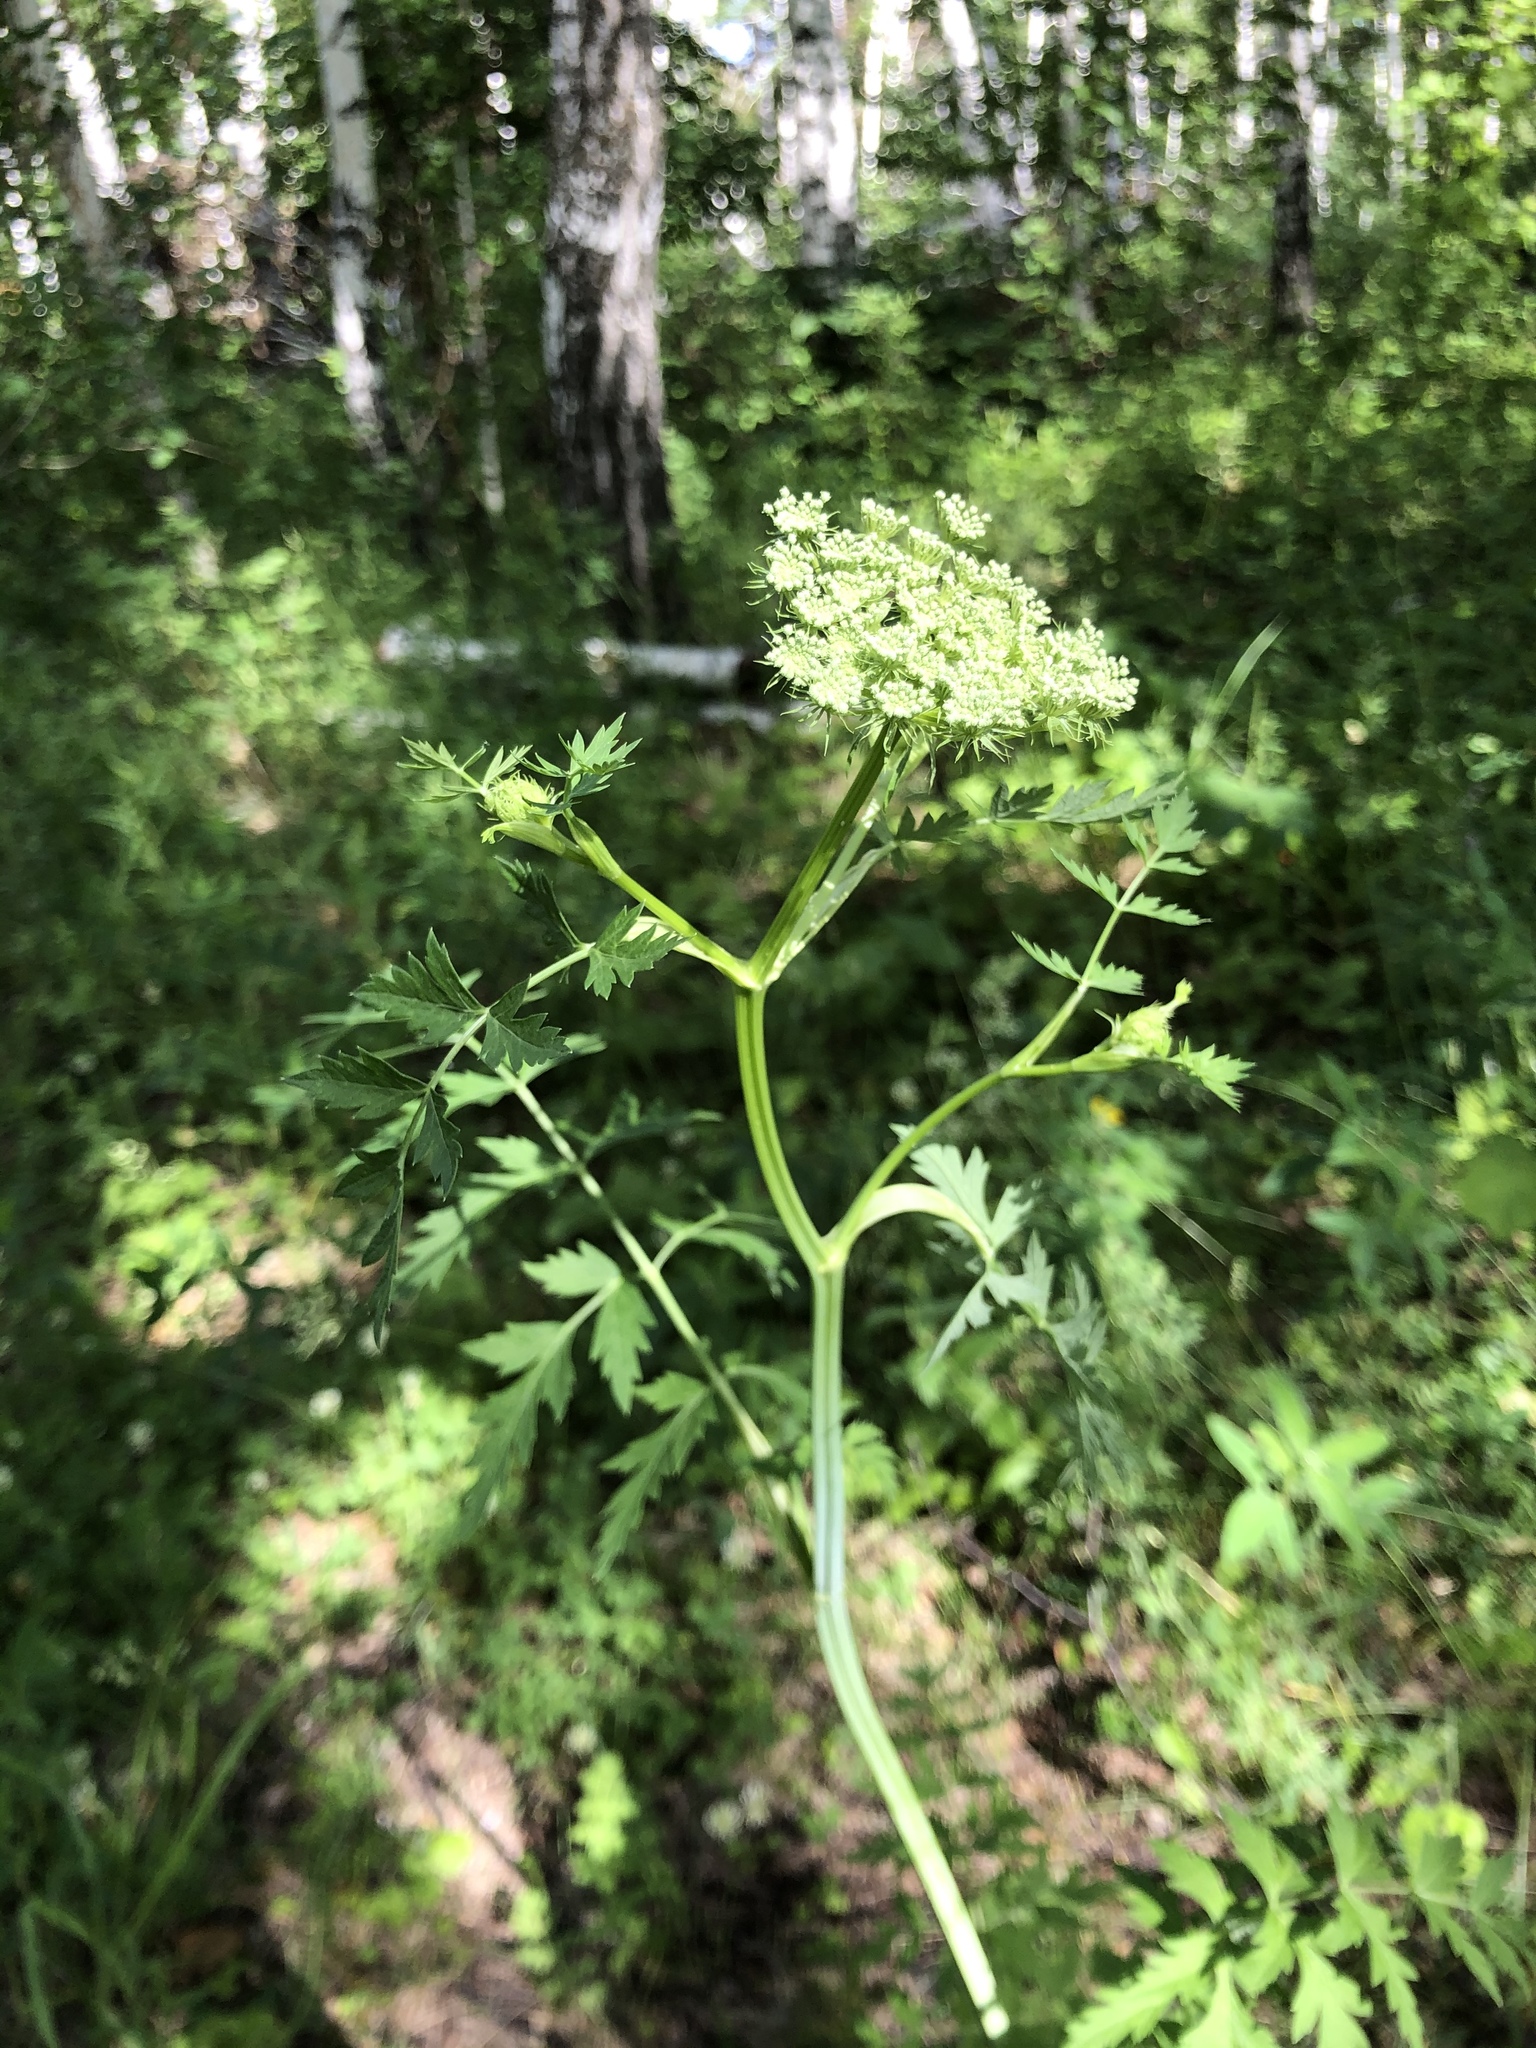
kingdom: Plantae
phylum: Tracheophyta
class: Magnoliopsida
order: Apiales
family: Apiaceae
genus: Seseli
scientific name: Seseli libanotis
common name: Mooncarrot
